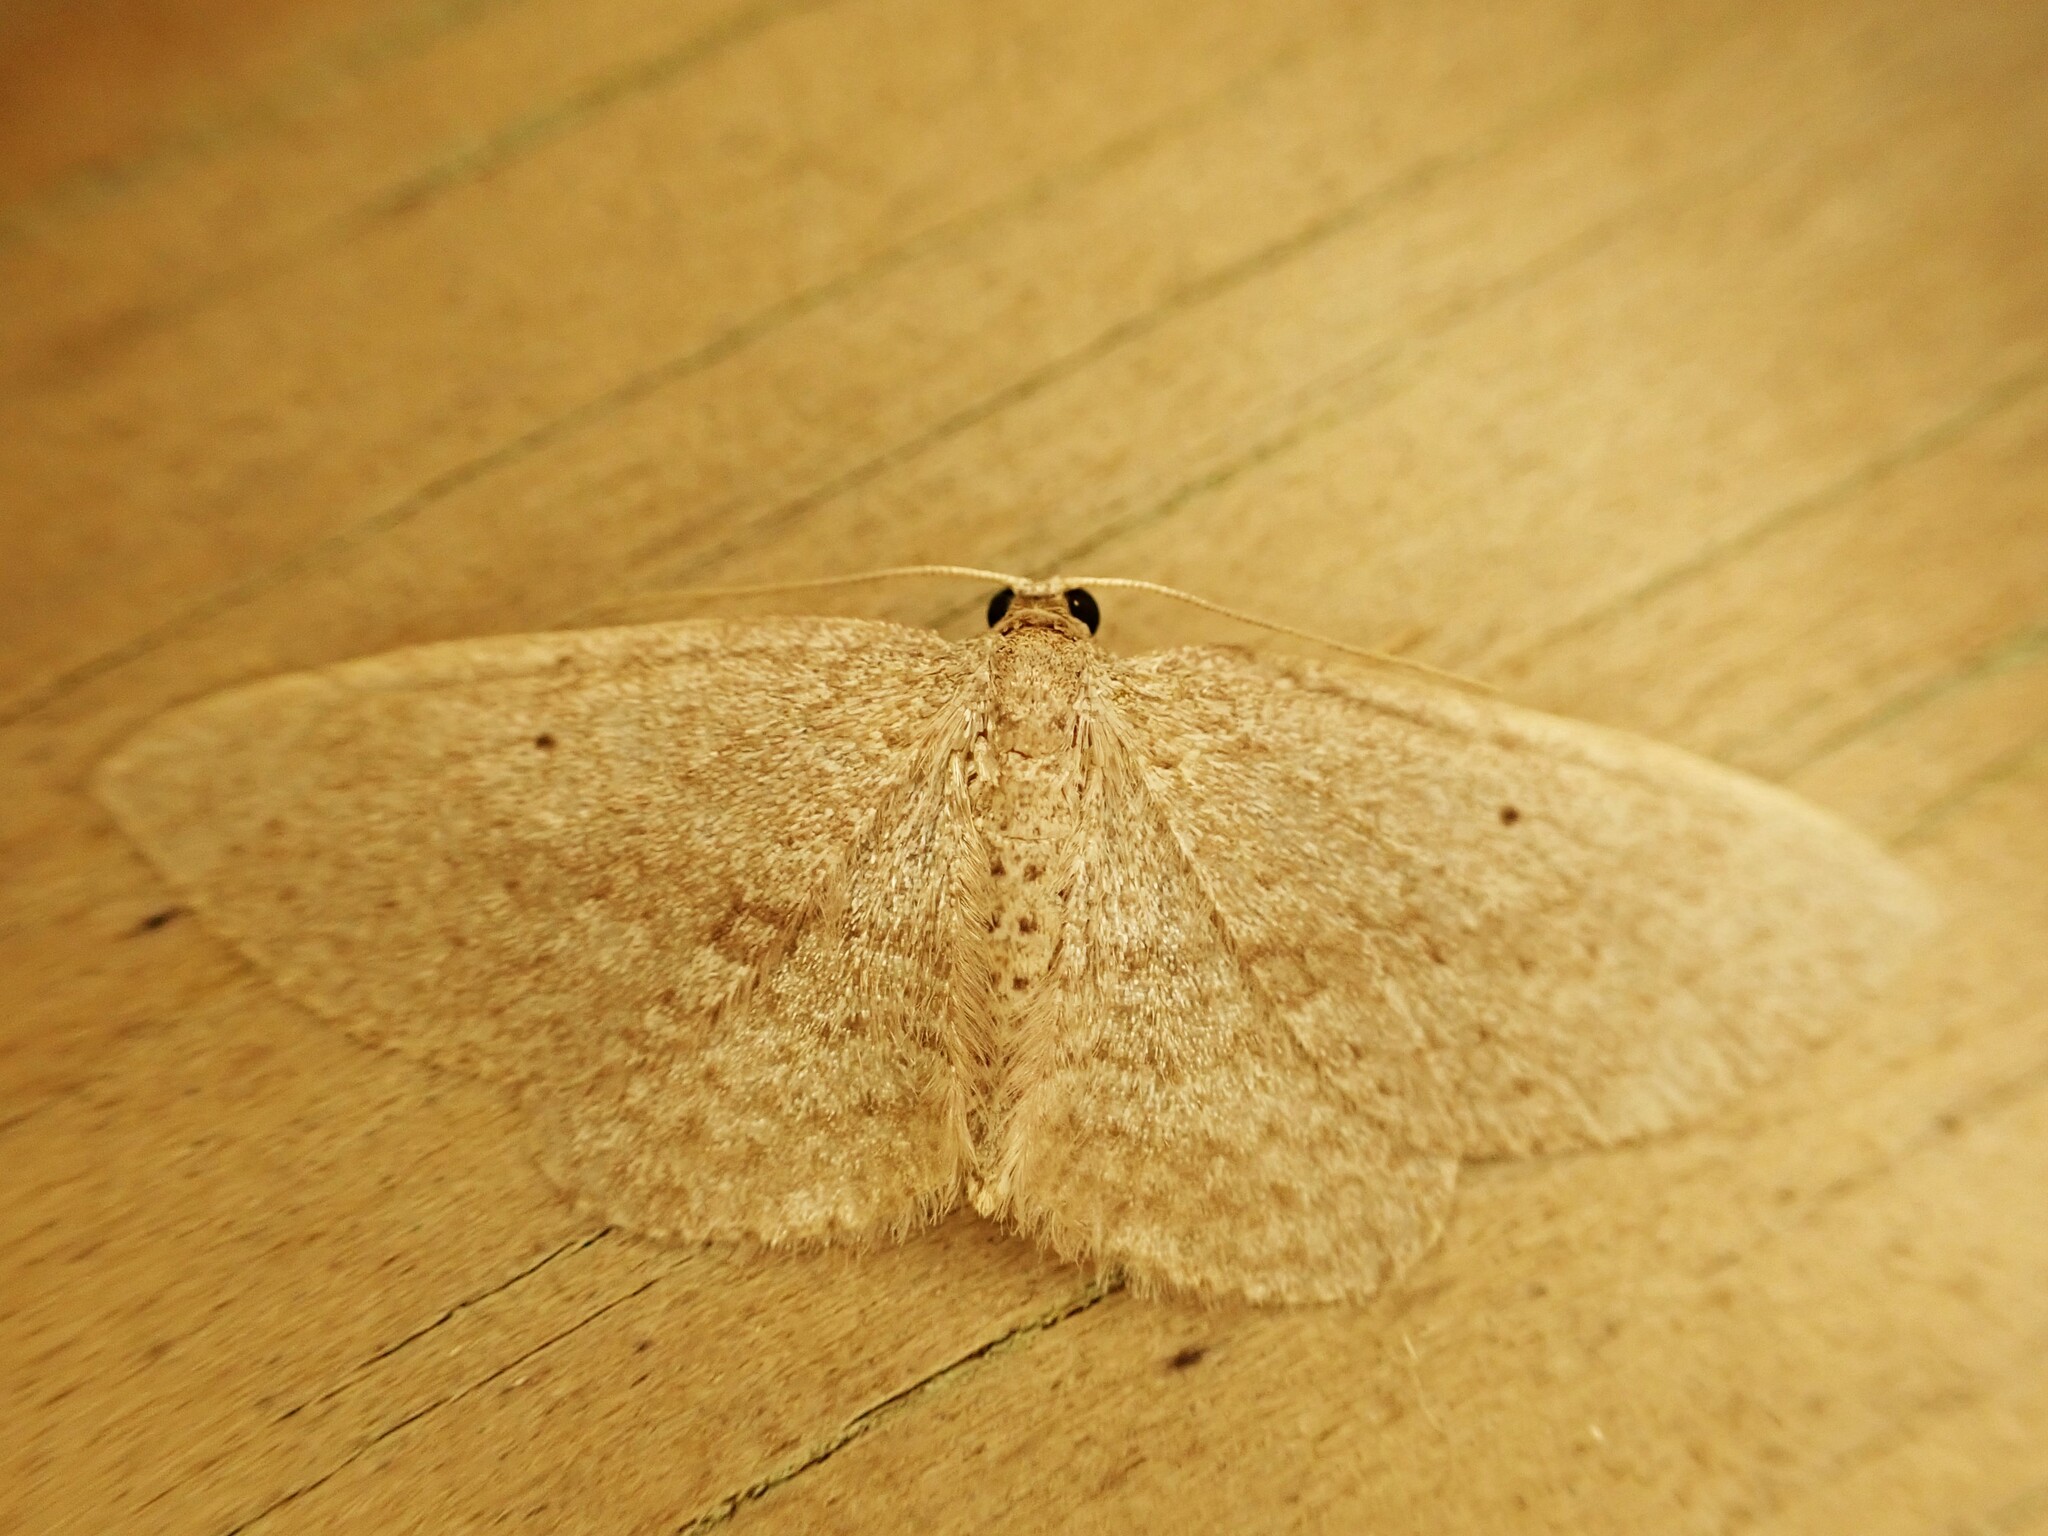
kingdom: Animalia
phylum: Arthropoda
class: Insecta
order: Lepidoptera
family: Geometridae
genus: Poecilasthena
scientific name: Poecilasthena schistaria
